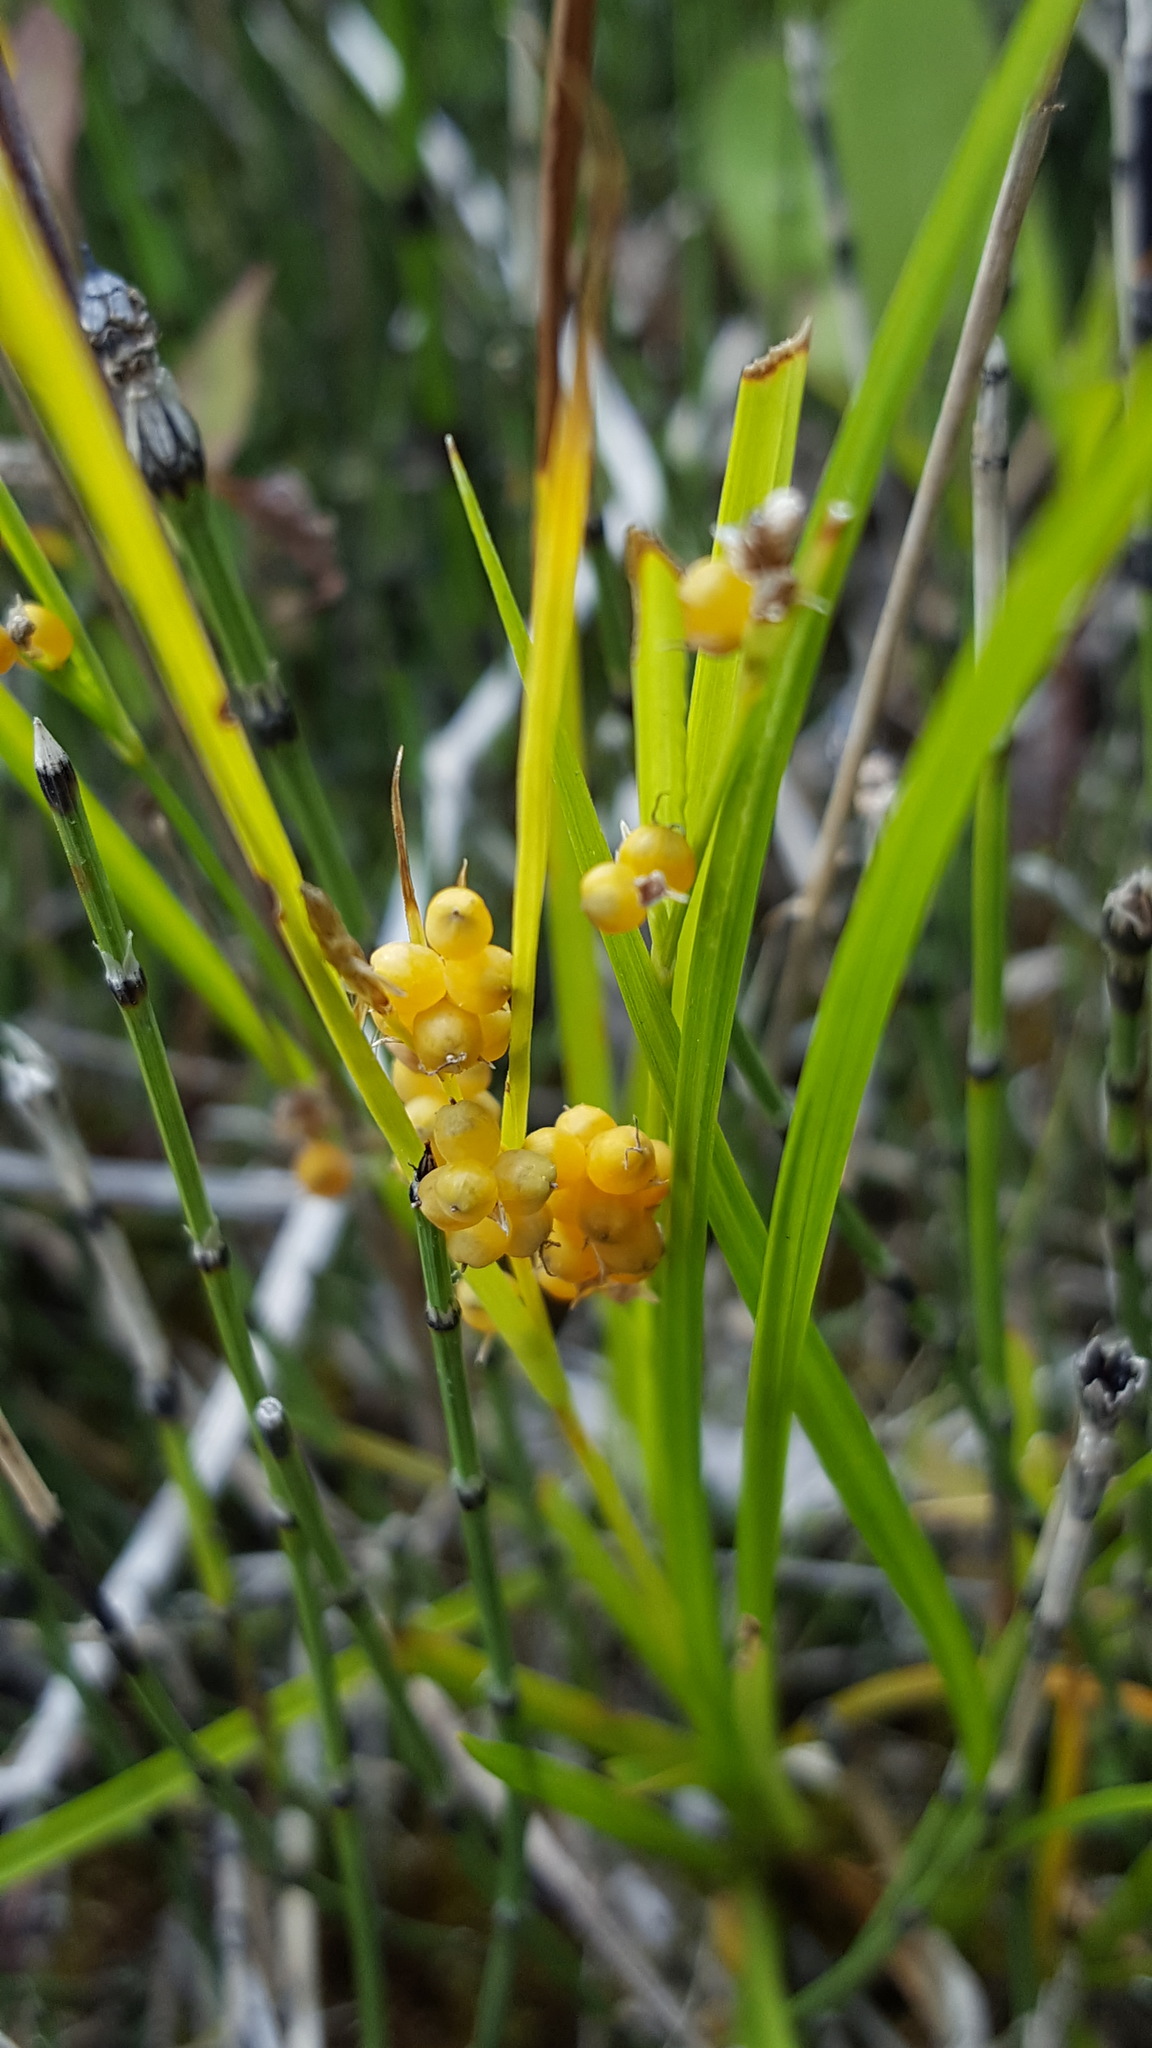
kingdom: Plantae
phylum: Tracheophyta
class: Liliopsida
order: Poales
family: Cyperaceae
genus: Carex
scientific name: Carex aurea
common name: Golden sedge
